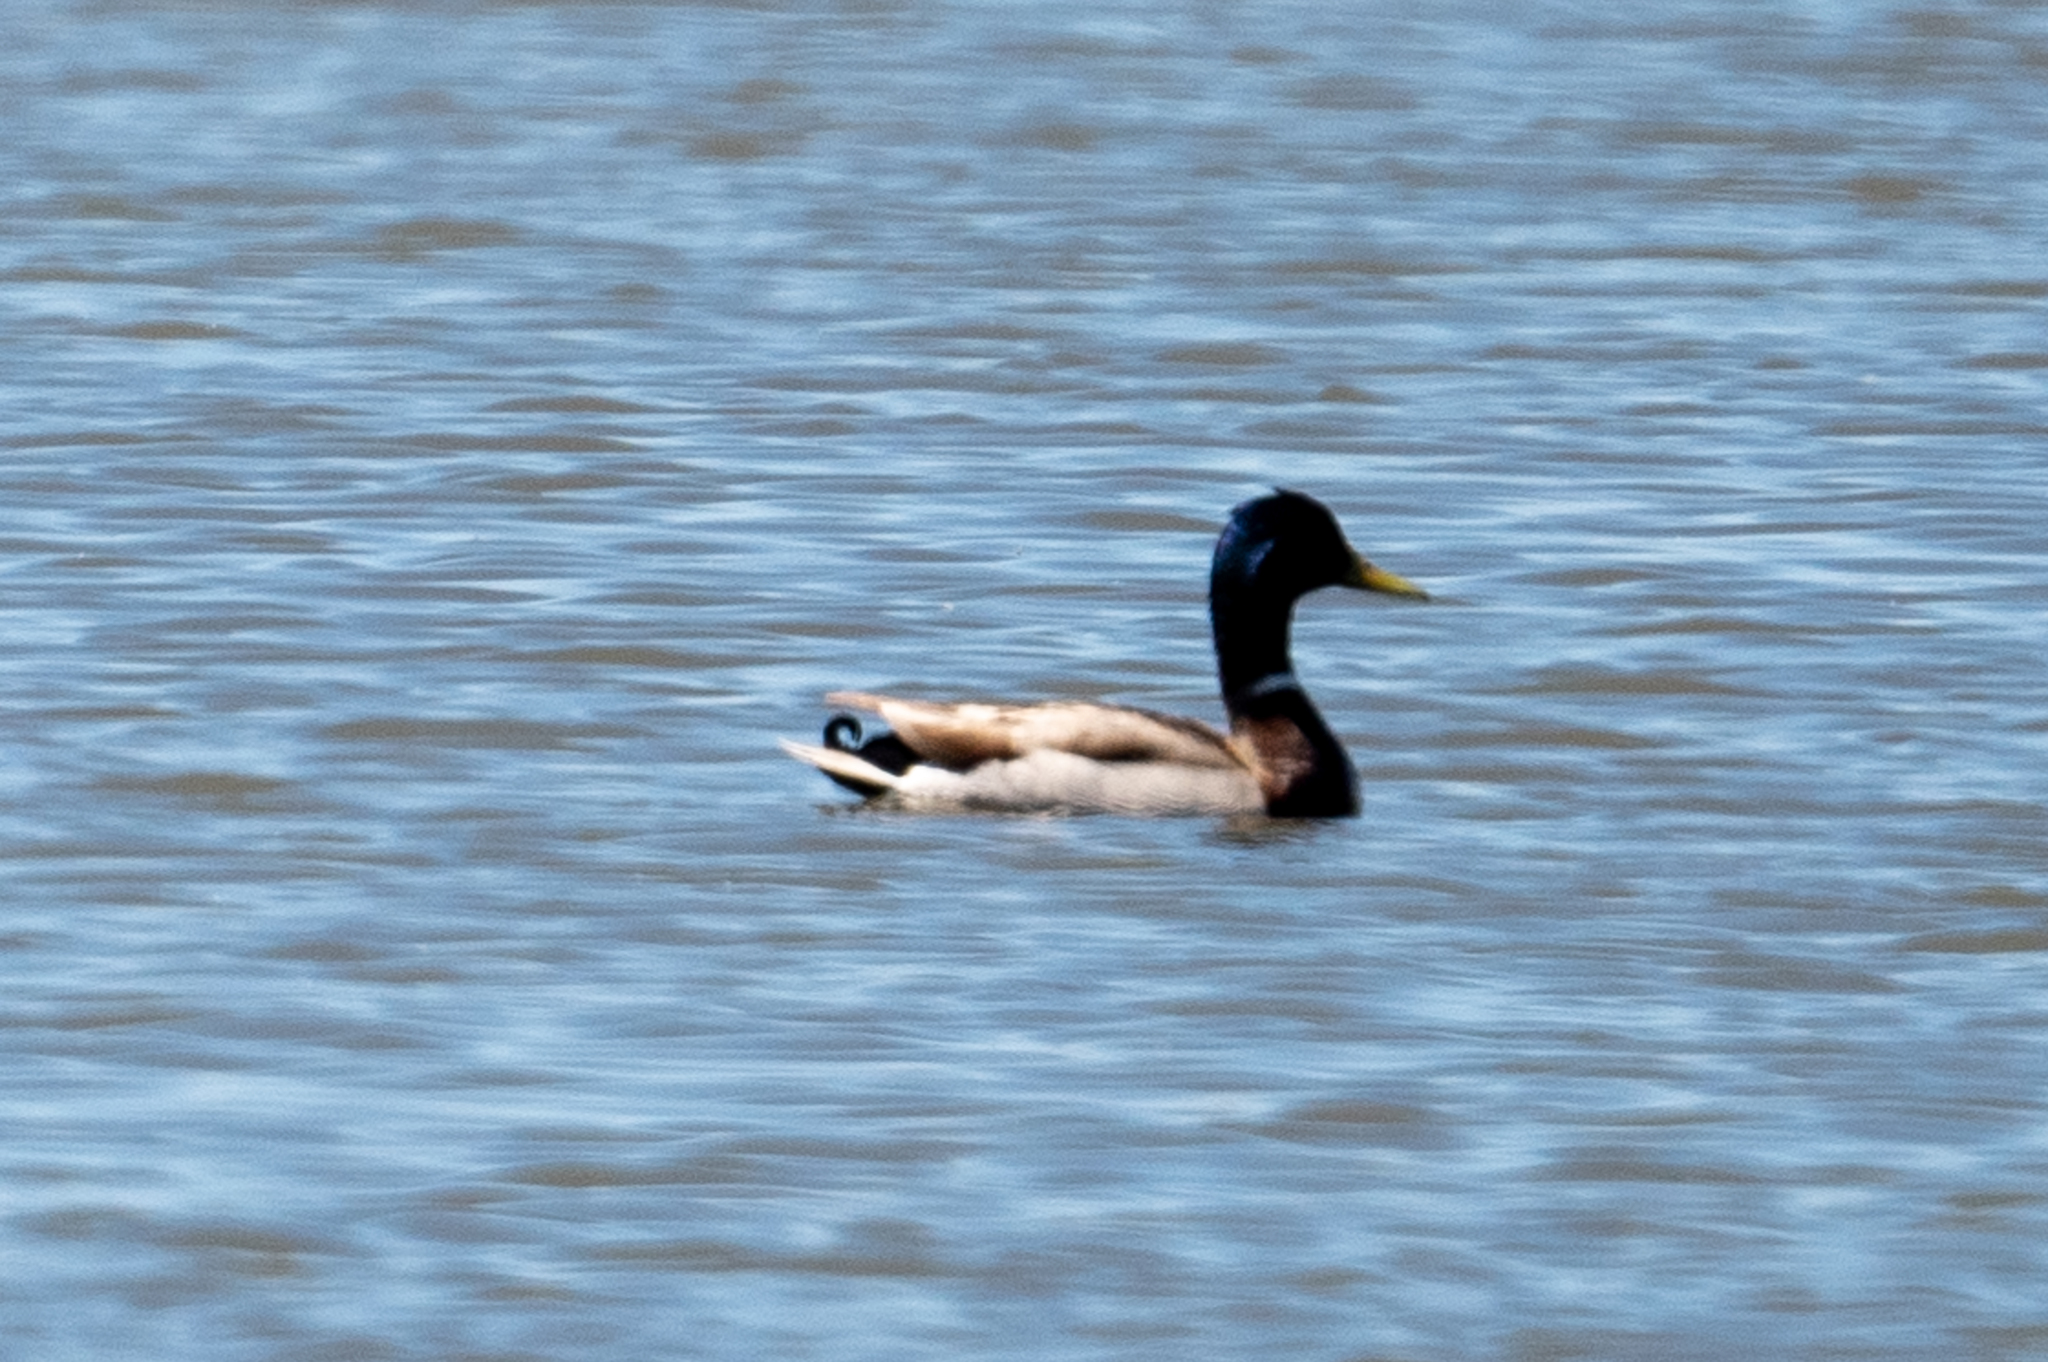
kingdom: Animalia
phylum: Chordata
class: Aves
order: Anseriformes
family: Anatidae
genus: Anas
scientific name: Anas platyrhynchos
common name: Mallard
